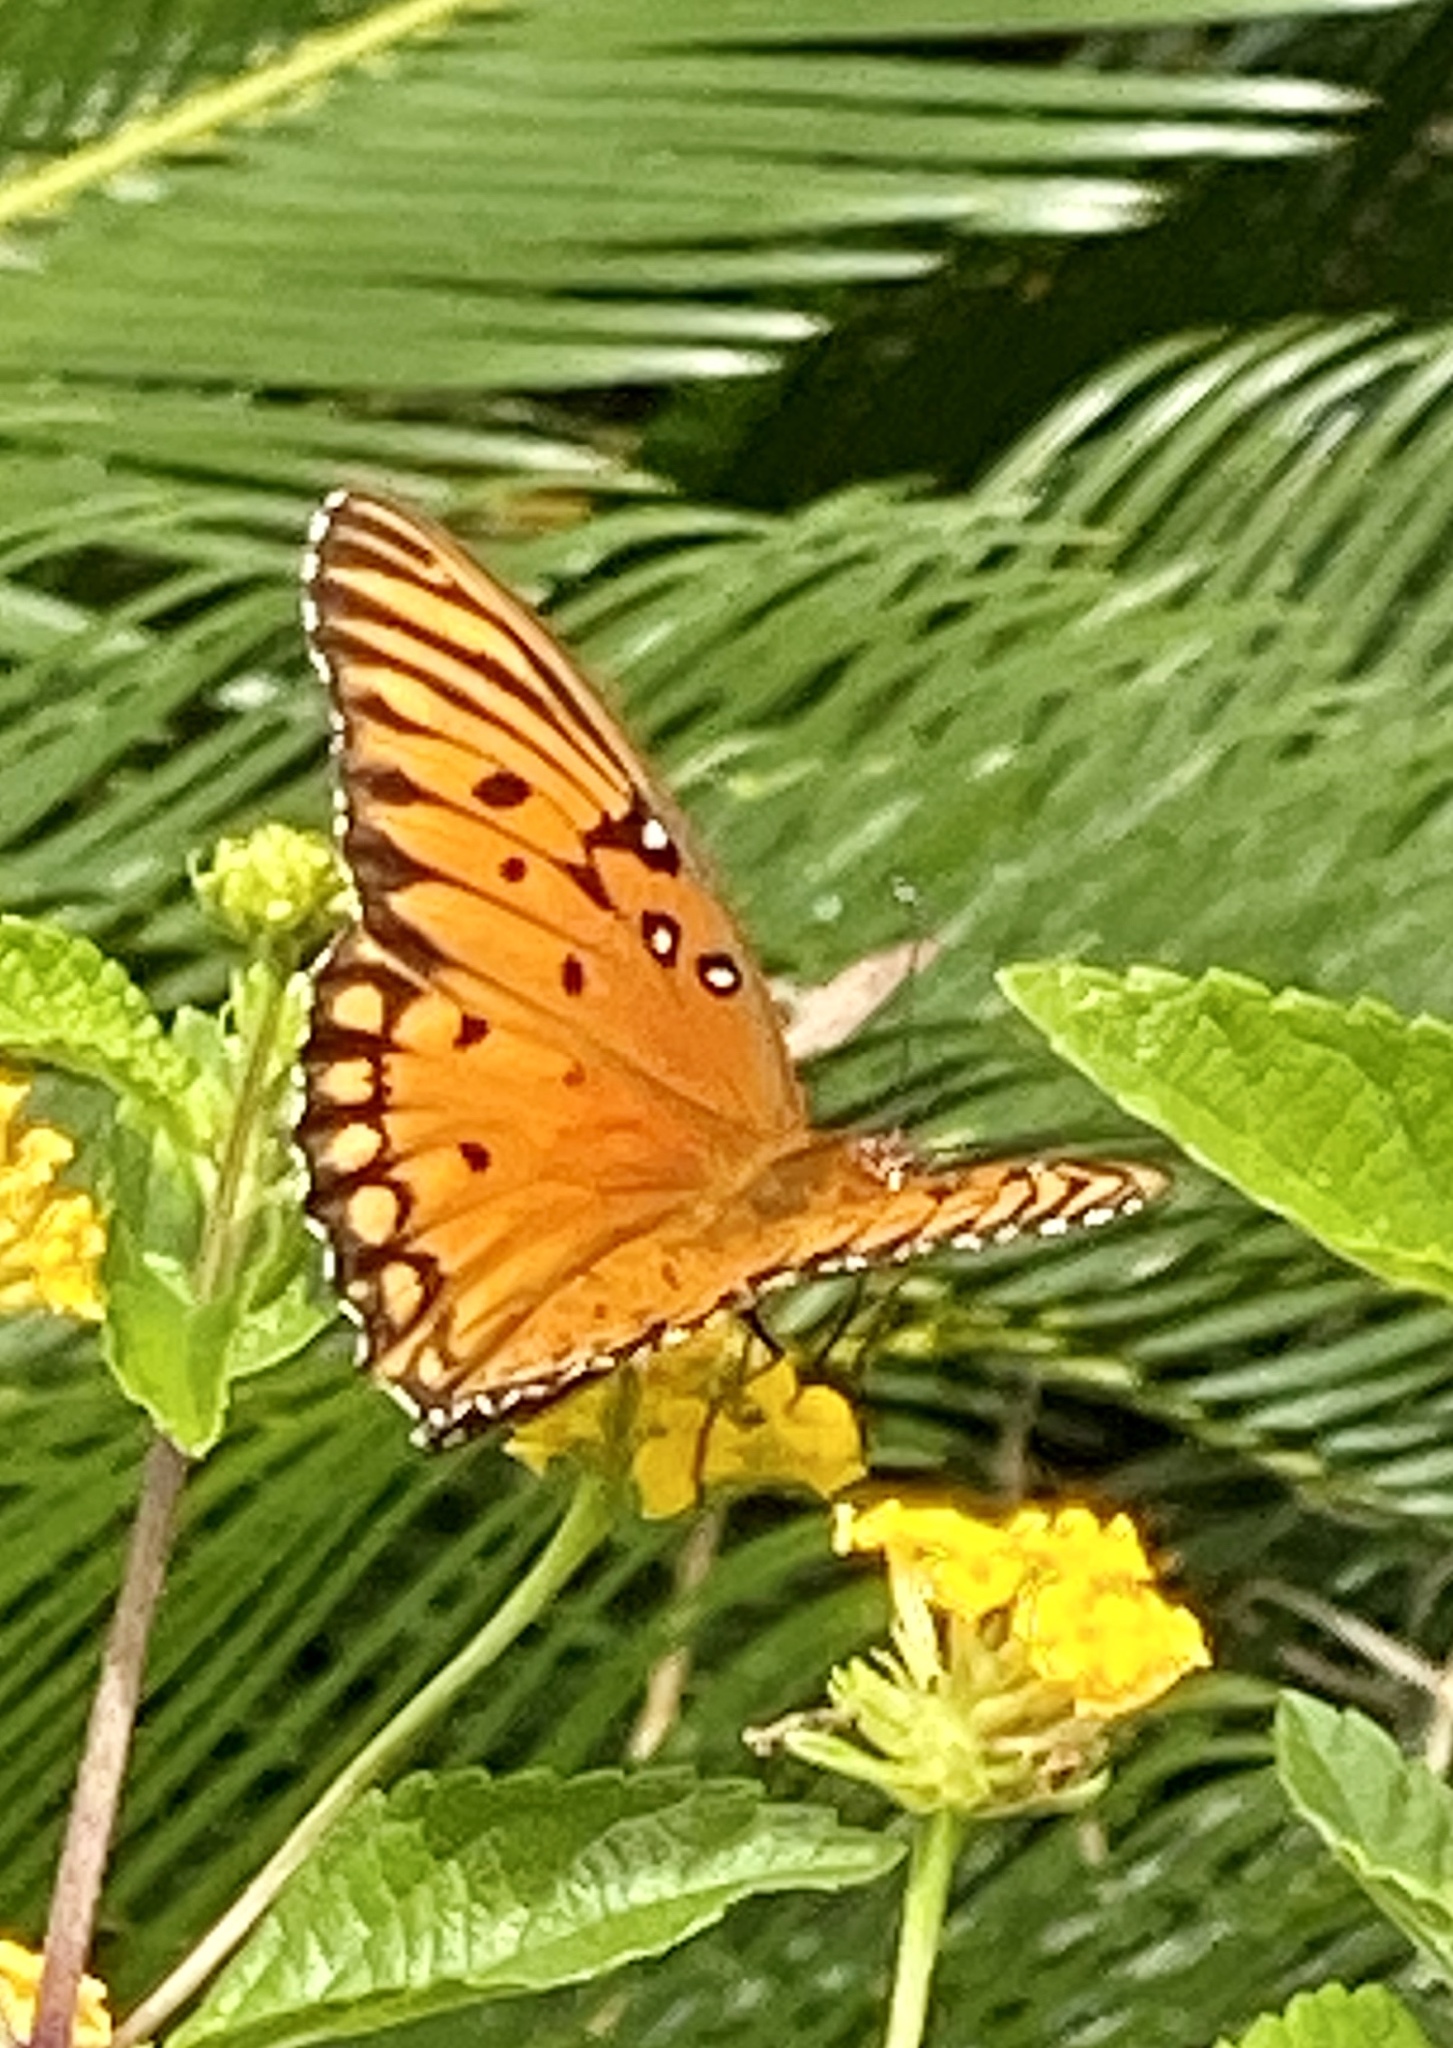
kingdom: Animalia
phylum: Arthropoda
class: Insecta
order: Lepidoptera
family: Nymphalidae
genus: Dione
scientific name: Dione vanillae
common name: Gulf fritillary
